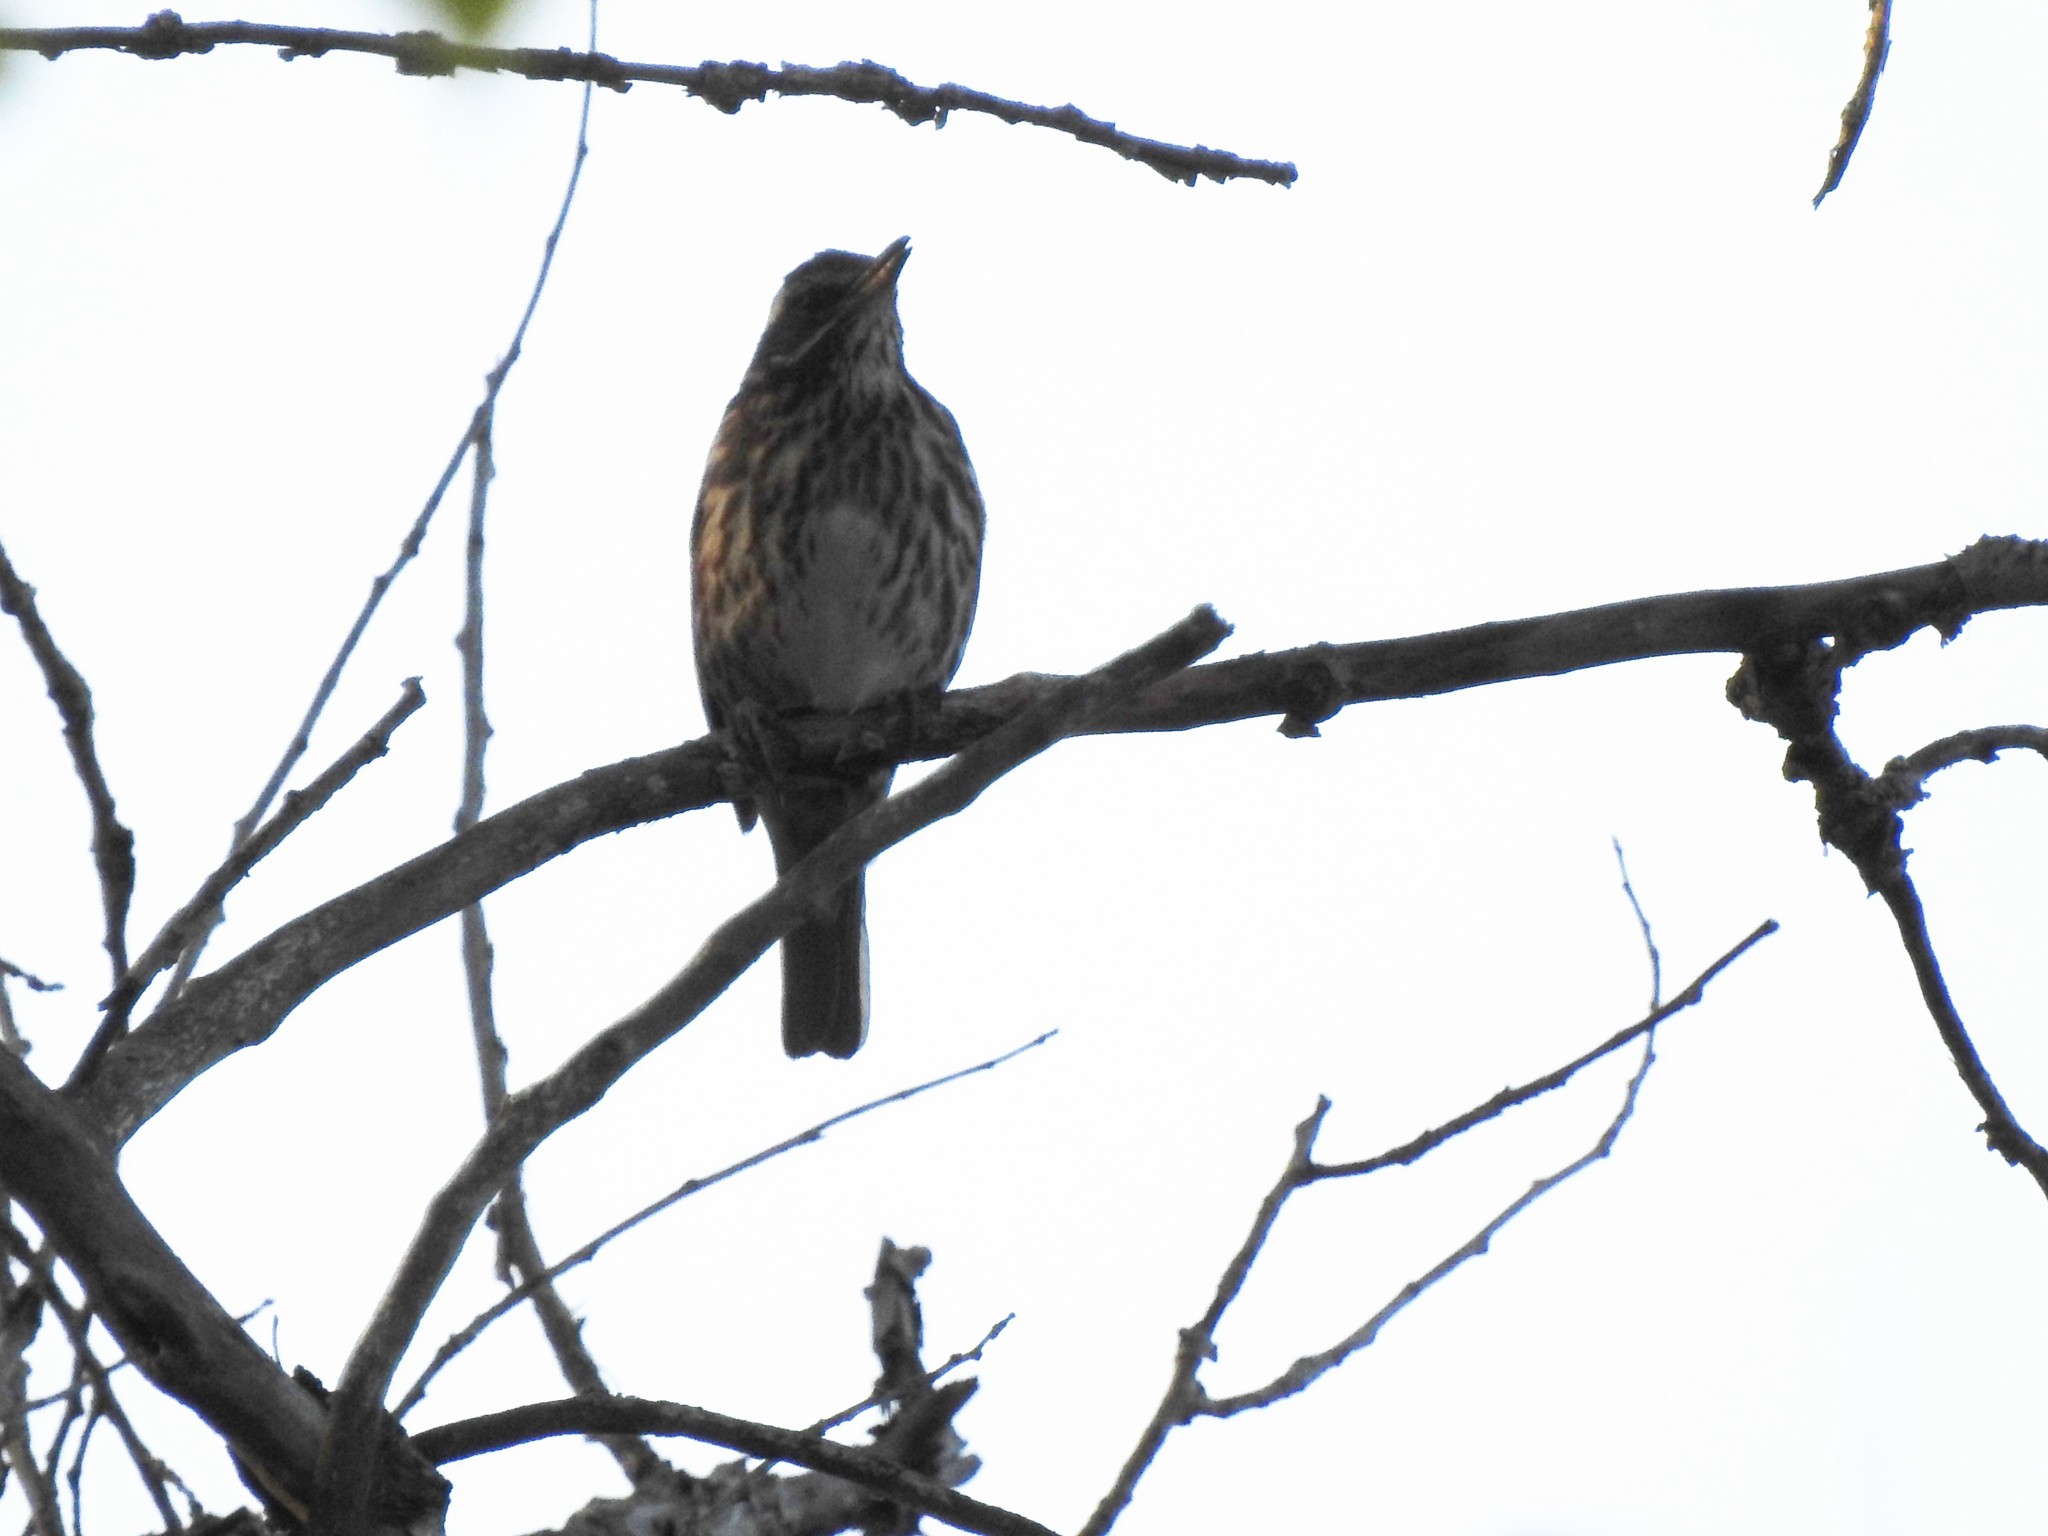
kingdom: Animalia
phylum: Chordata
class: Aves
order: Passeriformes
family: Turdidae
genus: Turdus
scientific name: Turdus iliacus
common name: Redwing
